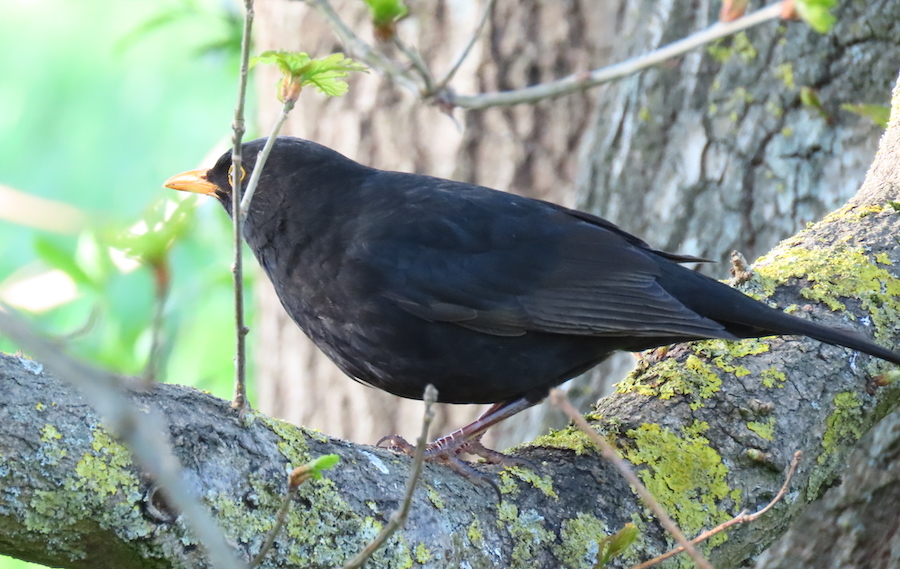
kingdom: Animalia
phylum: Chordata
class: Aves
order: Passeriformes
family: Turdidae
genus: Turdus
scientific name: Turdus merula
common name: Common blackbird
